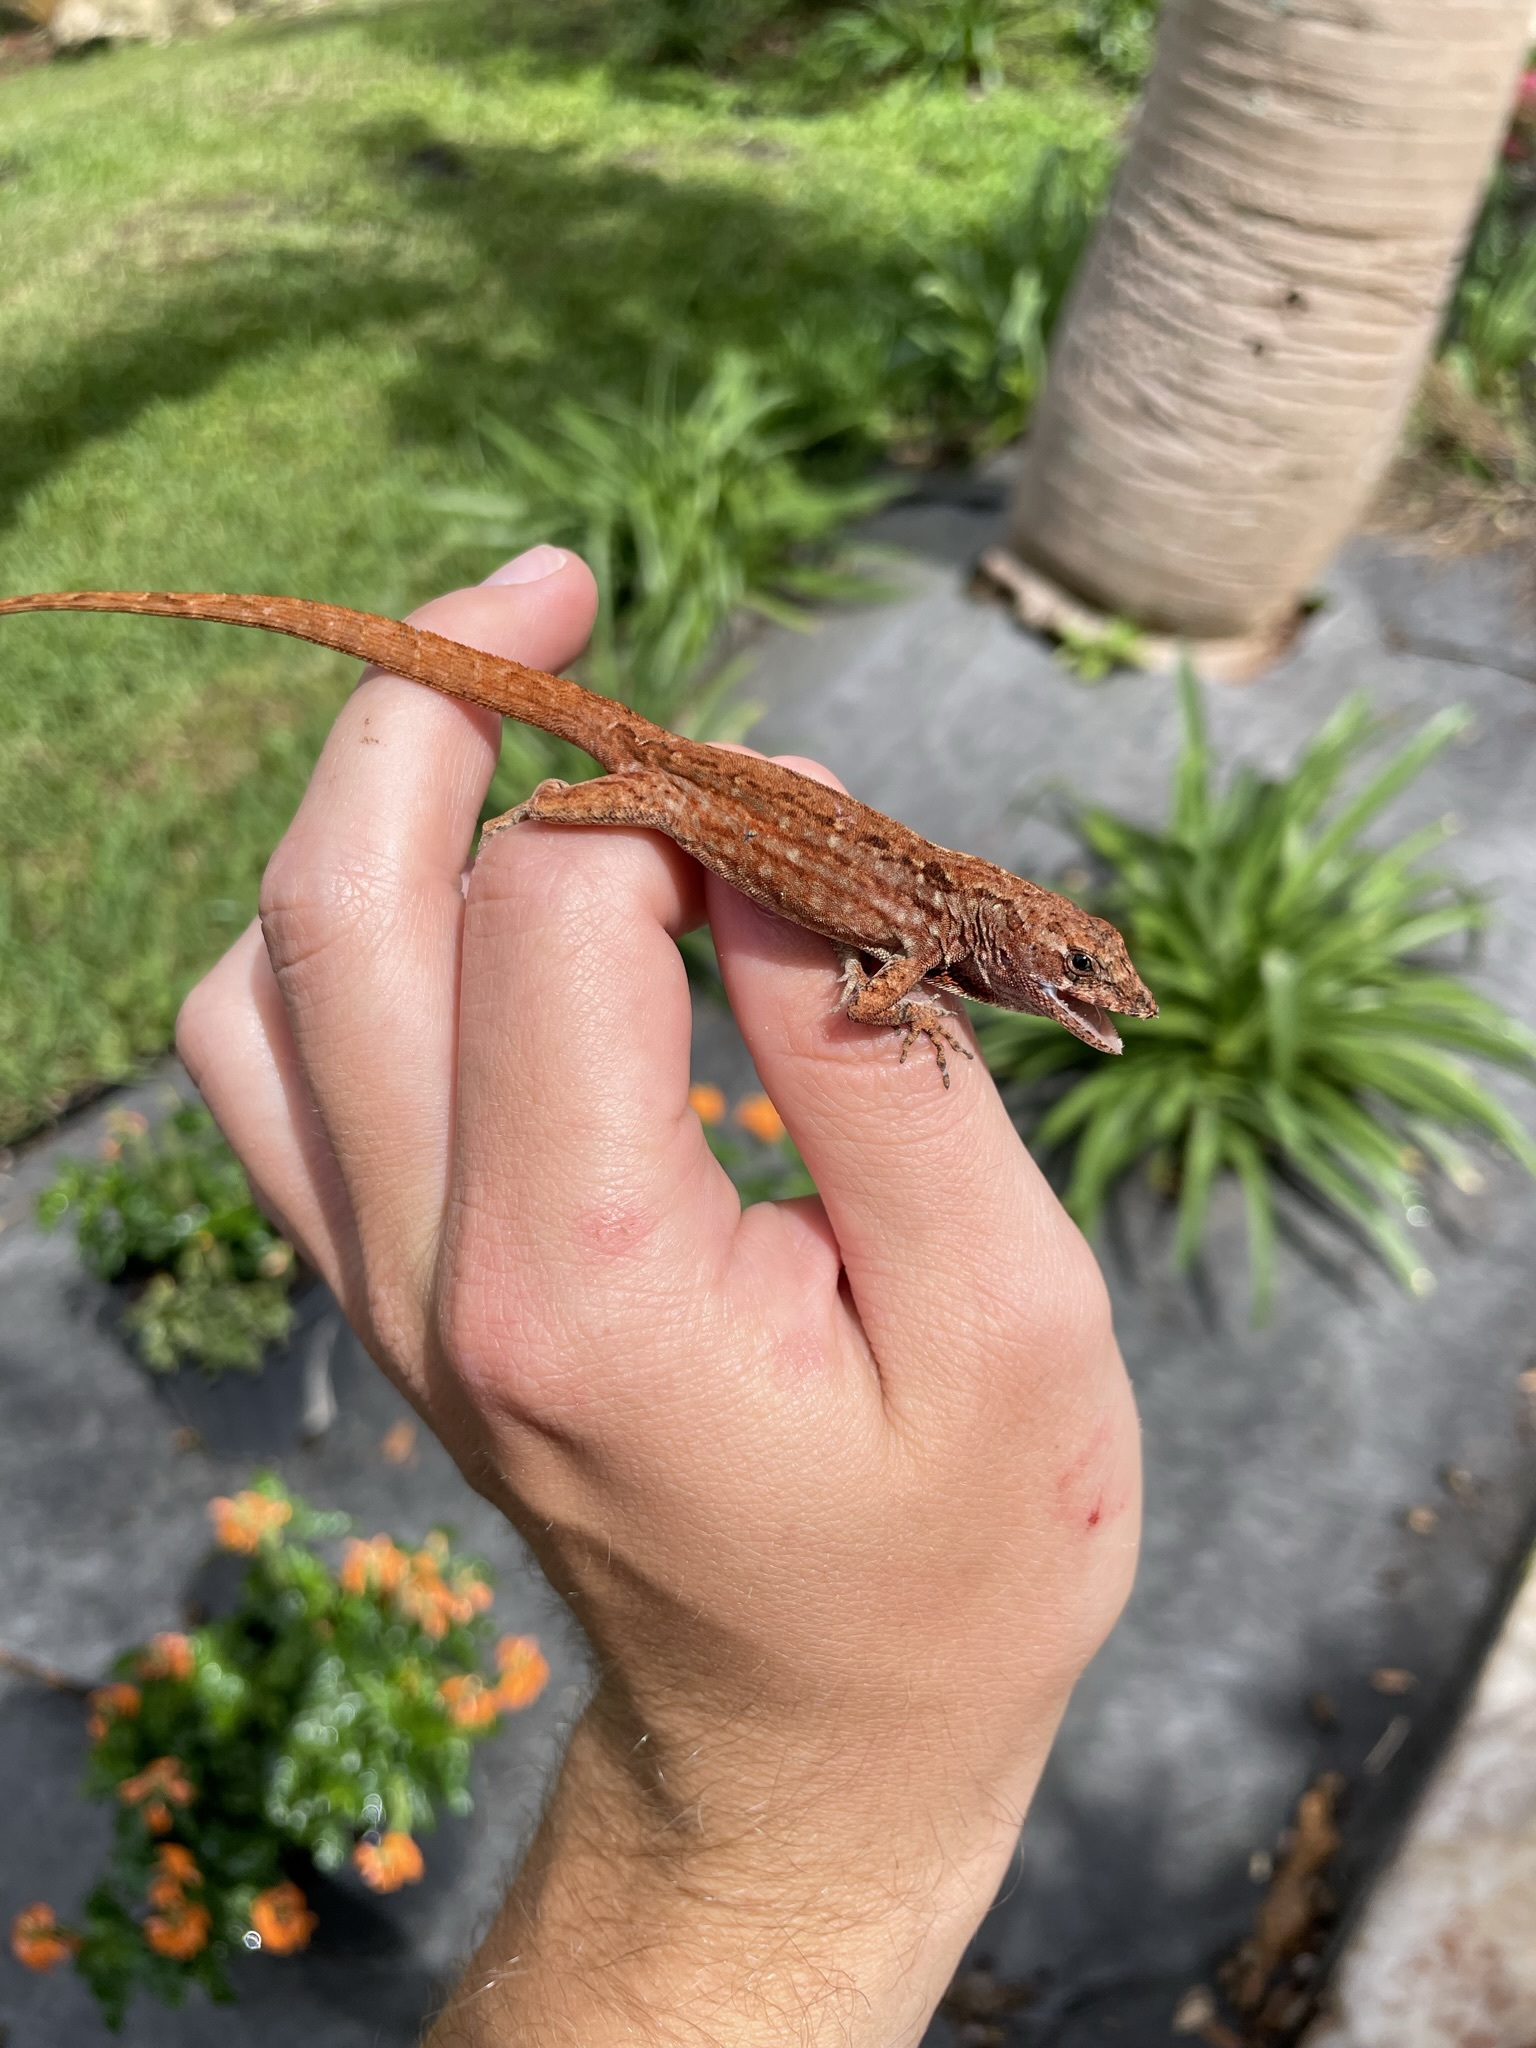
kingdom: Animalia
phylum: Chordata
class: Squamata
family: Dactyloidae
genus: Anolis
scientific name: Anolis sagrei
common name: Brown anole
